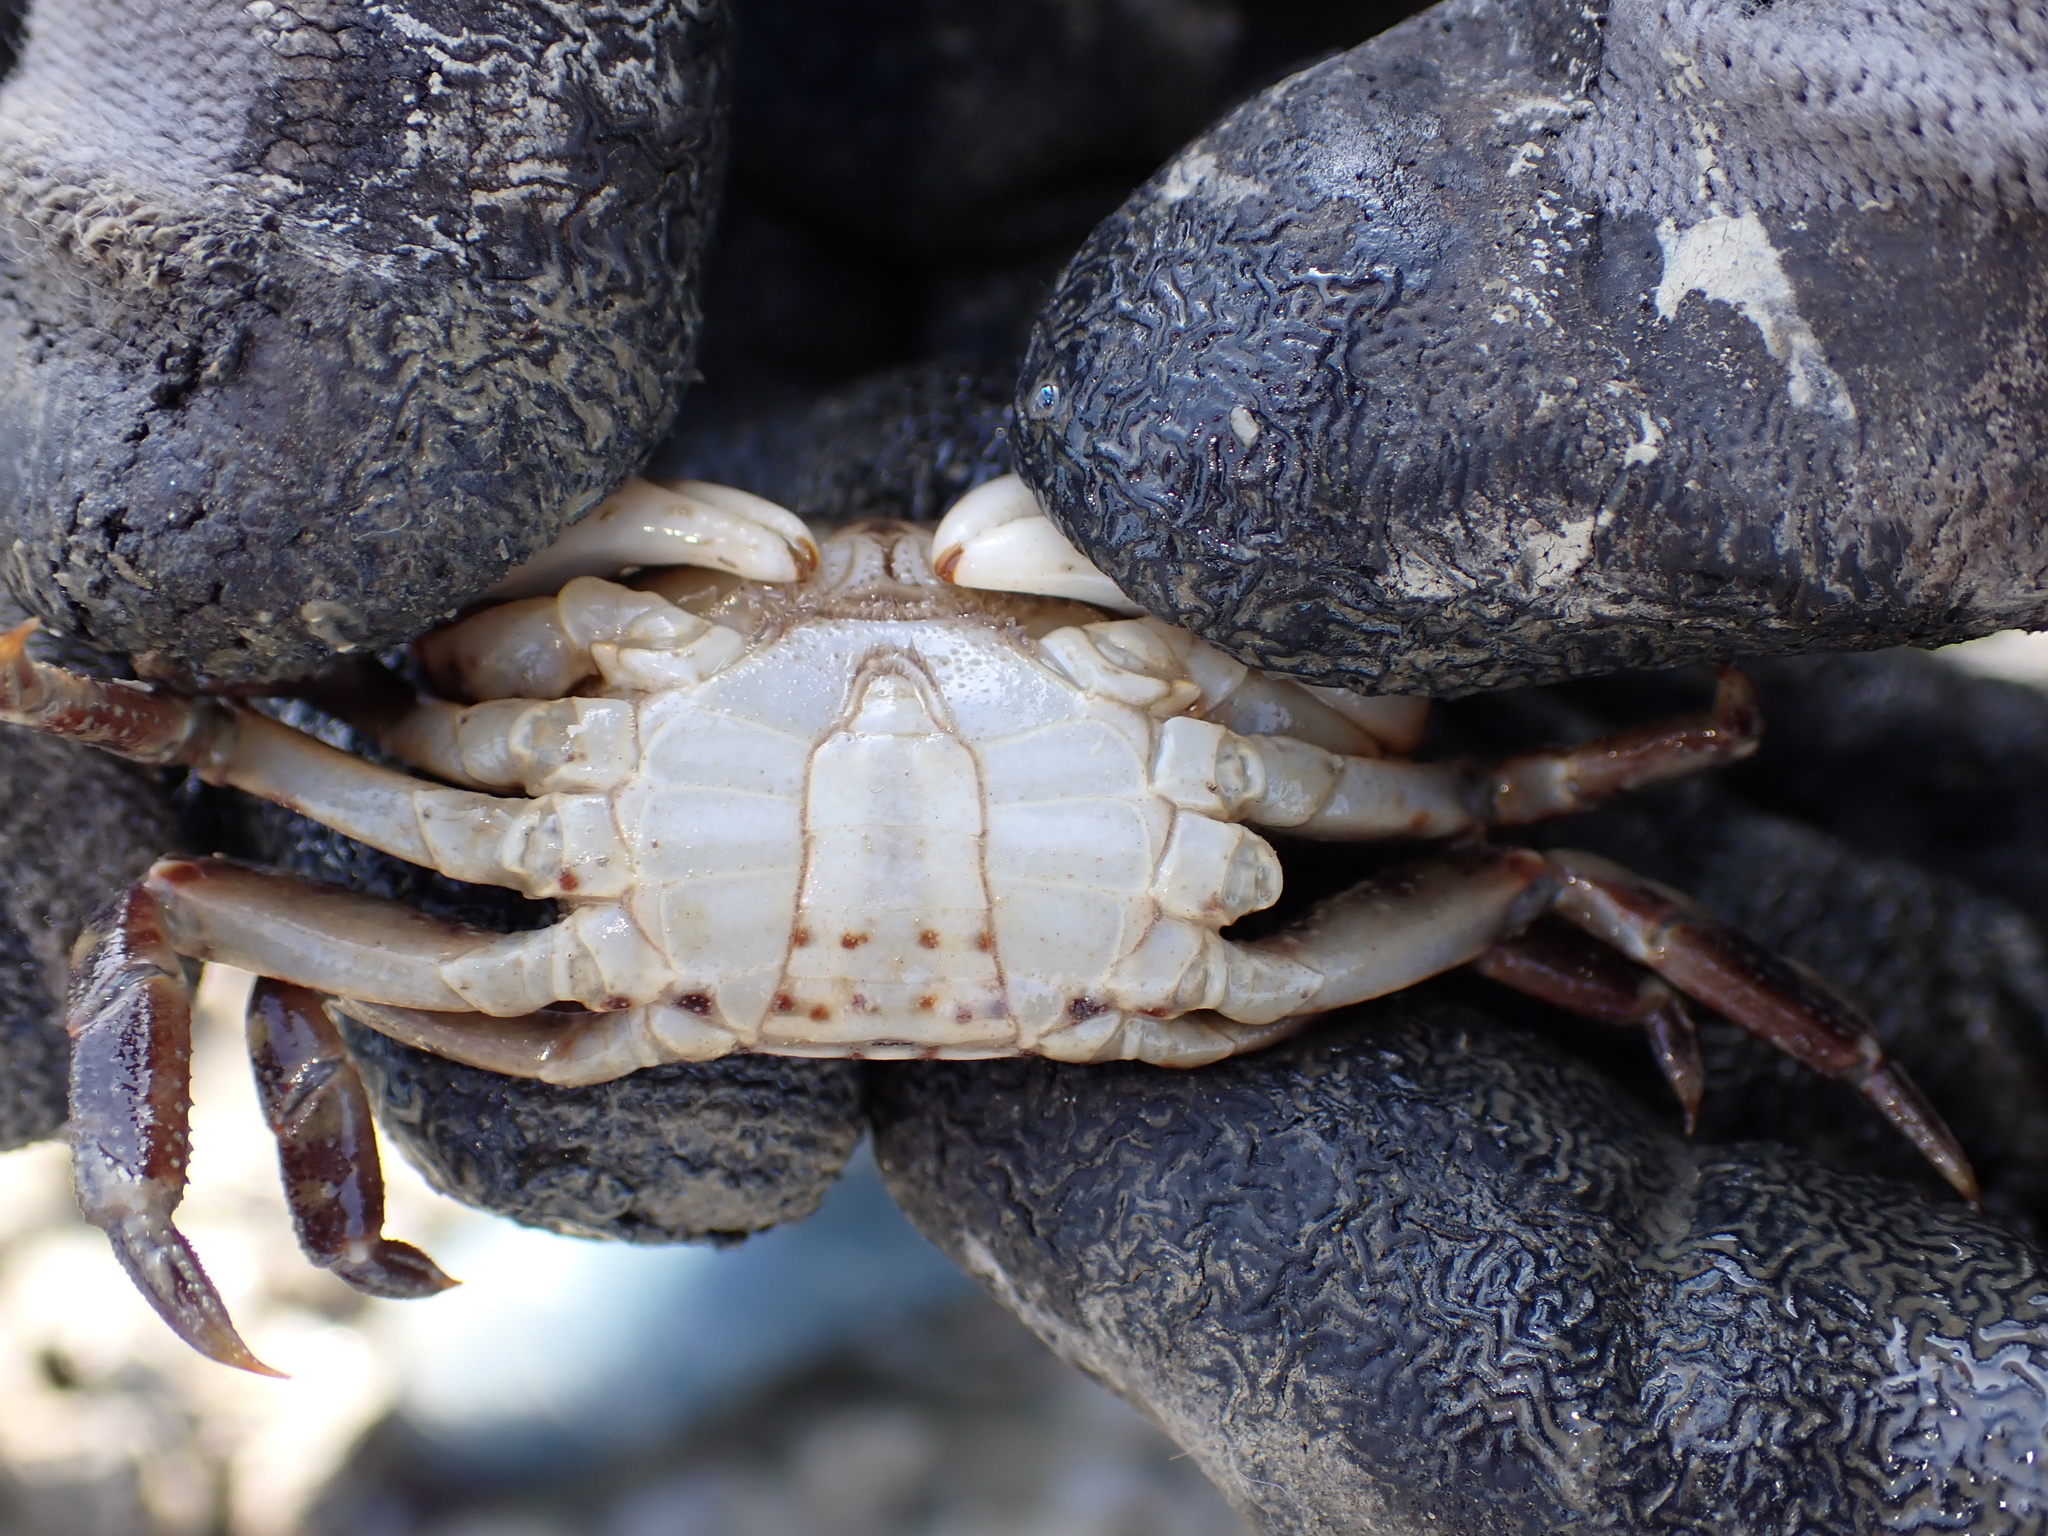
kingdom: Animalia
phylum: Arthropoda
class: Malacostraca
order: Decapoda
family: Varunidae
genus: Hemigrapsus
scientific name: Hemigrapsus sanguineus
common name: Asian shore crab
